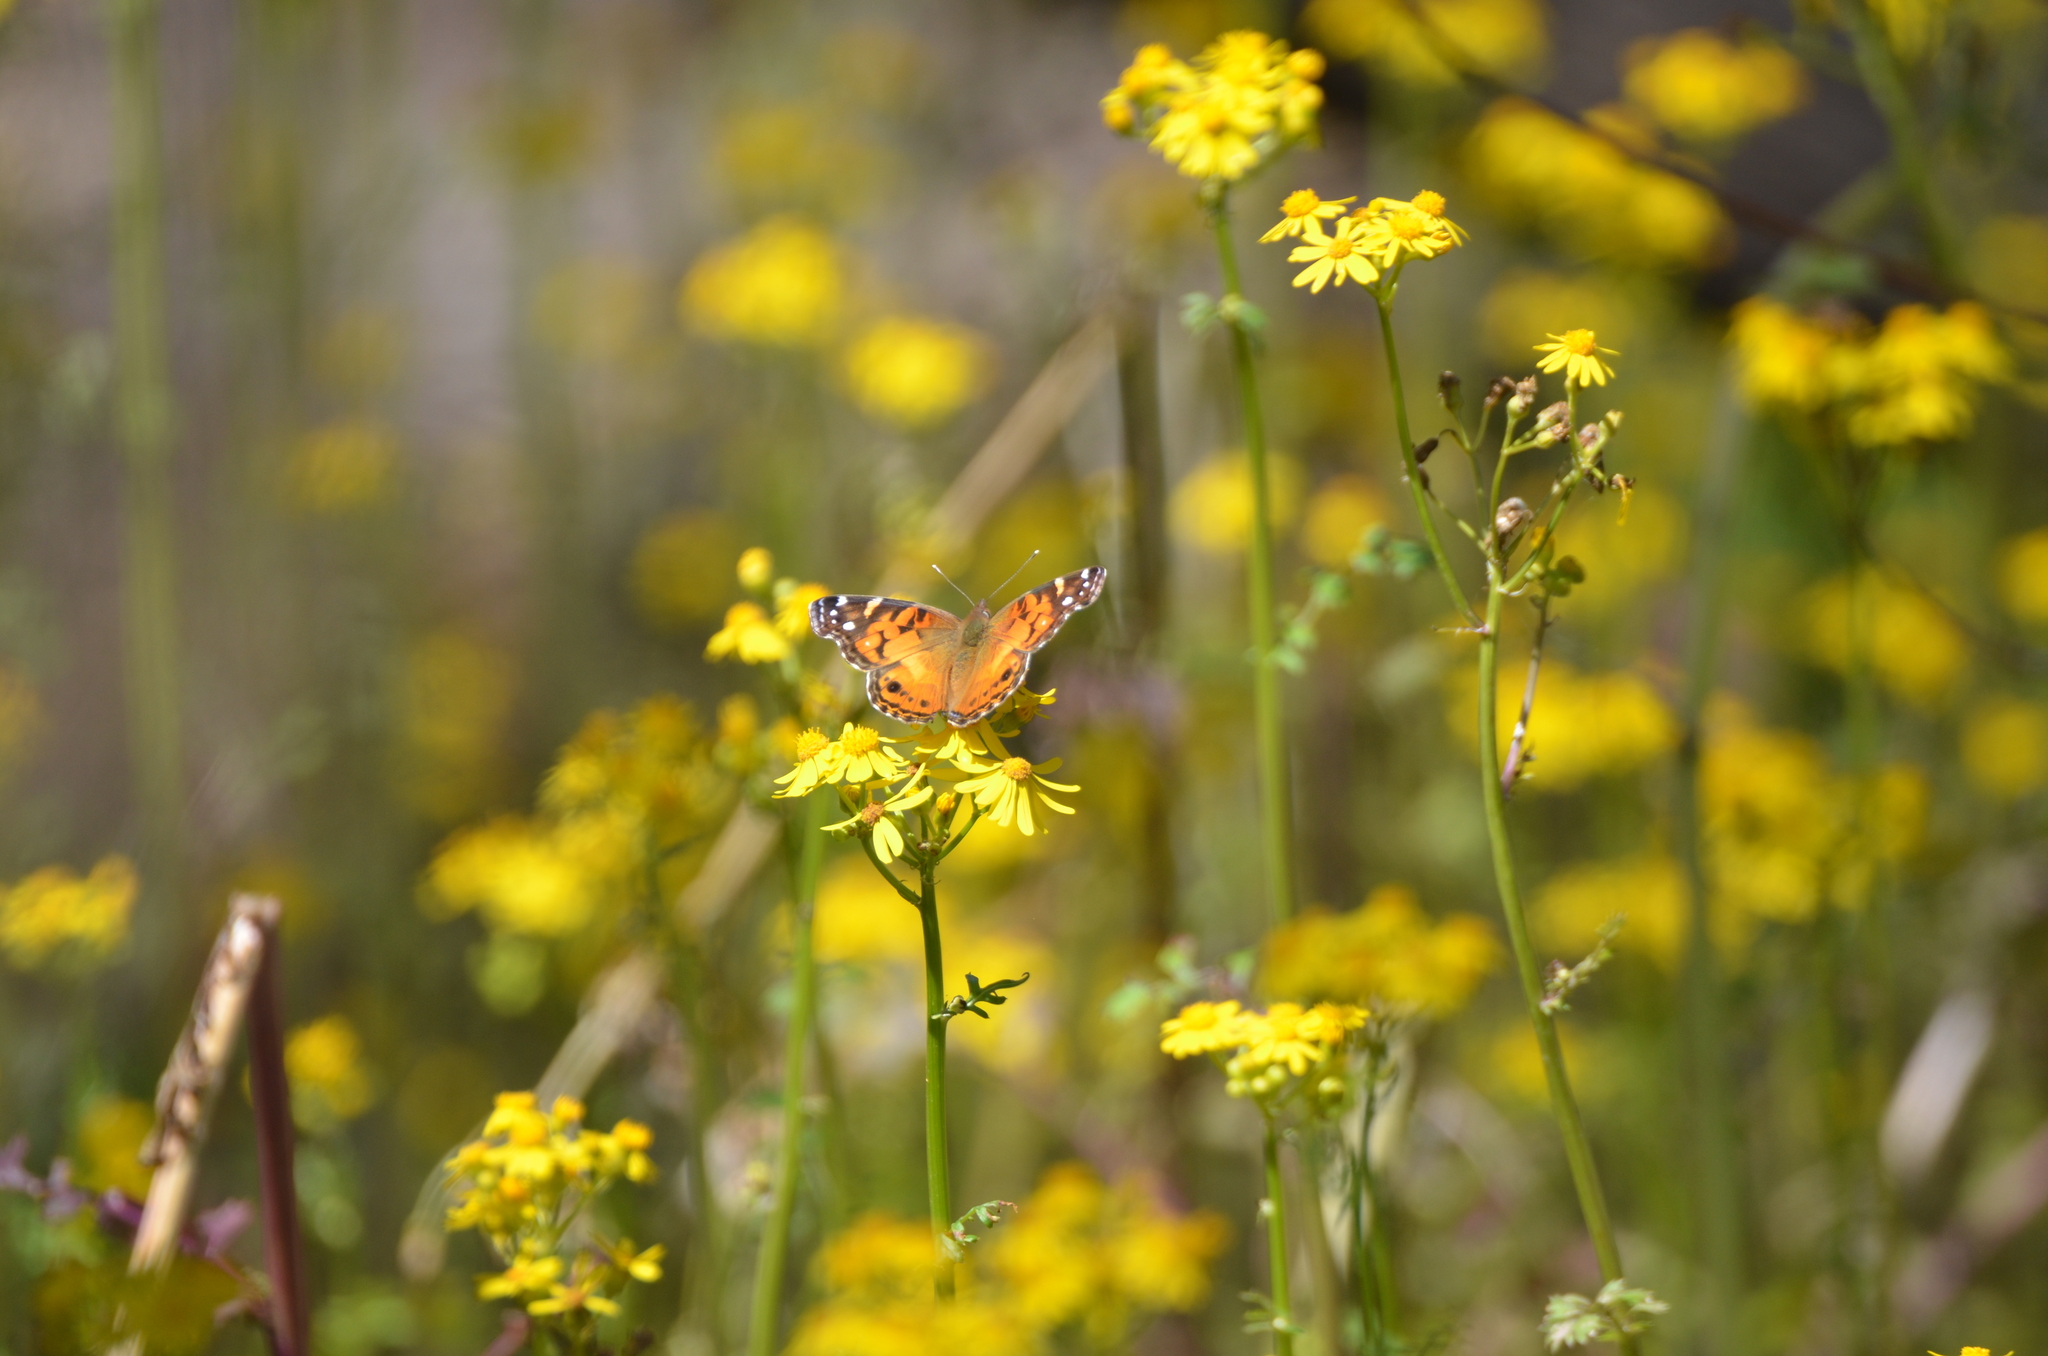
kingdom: Animalia
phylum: Arthropoda
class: Insecta
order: Lepidoptera
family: Nymphalidae
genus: Vanessa
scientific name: Vanessa virginiensis
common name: American lady
